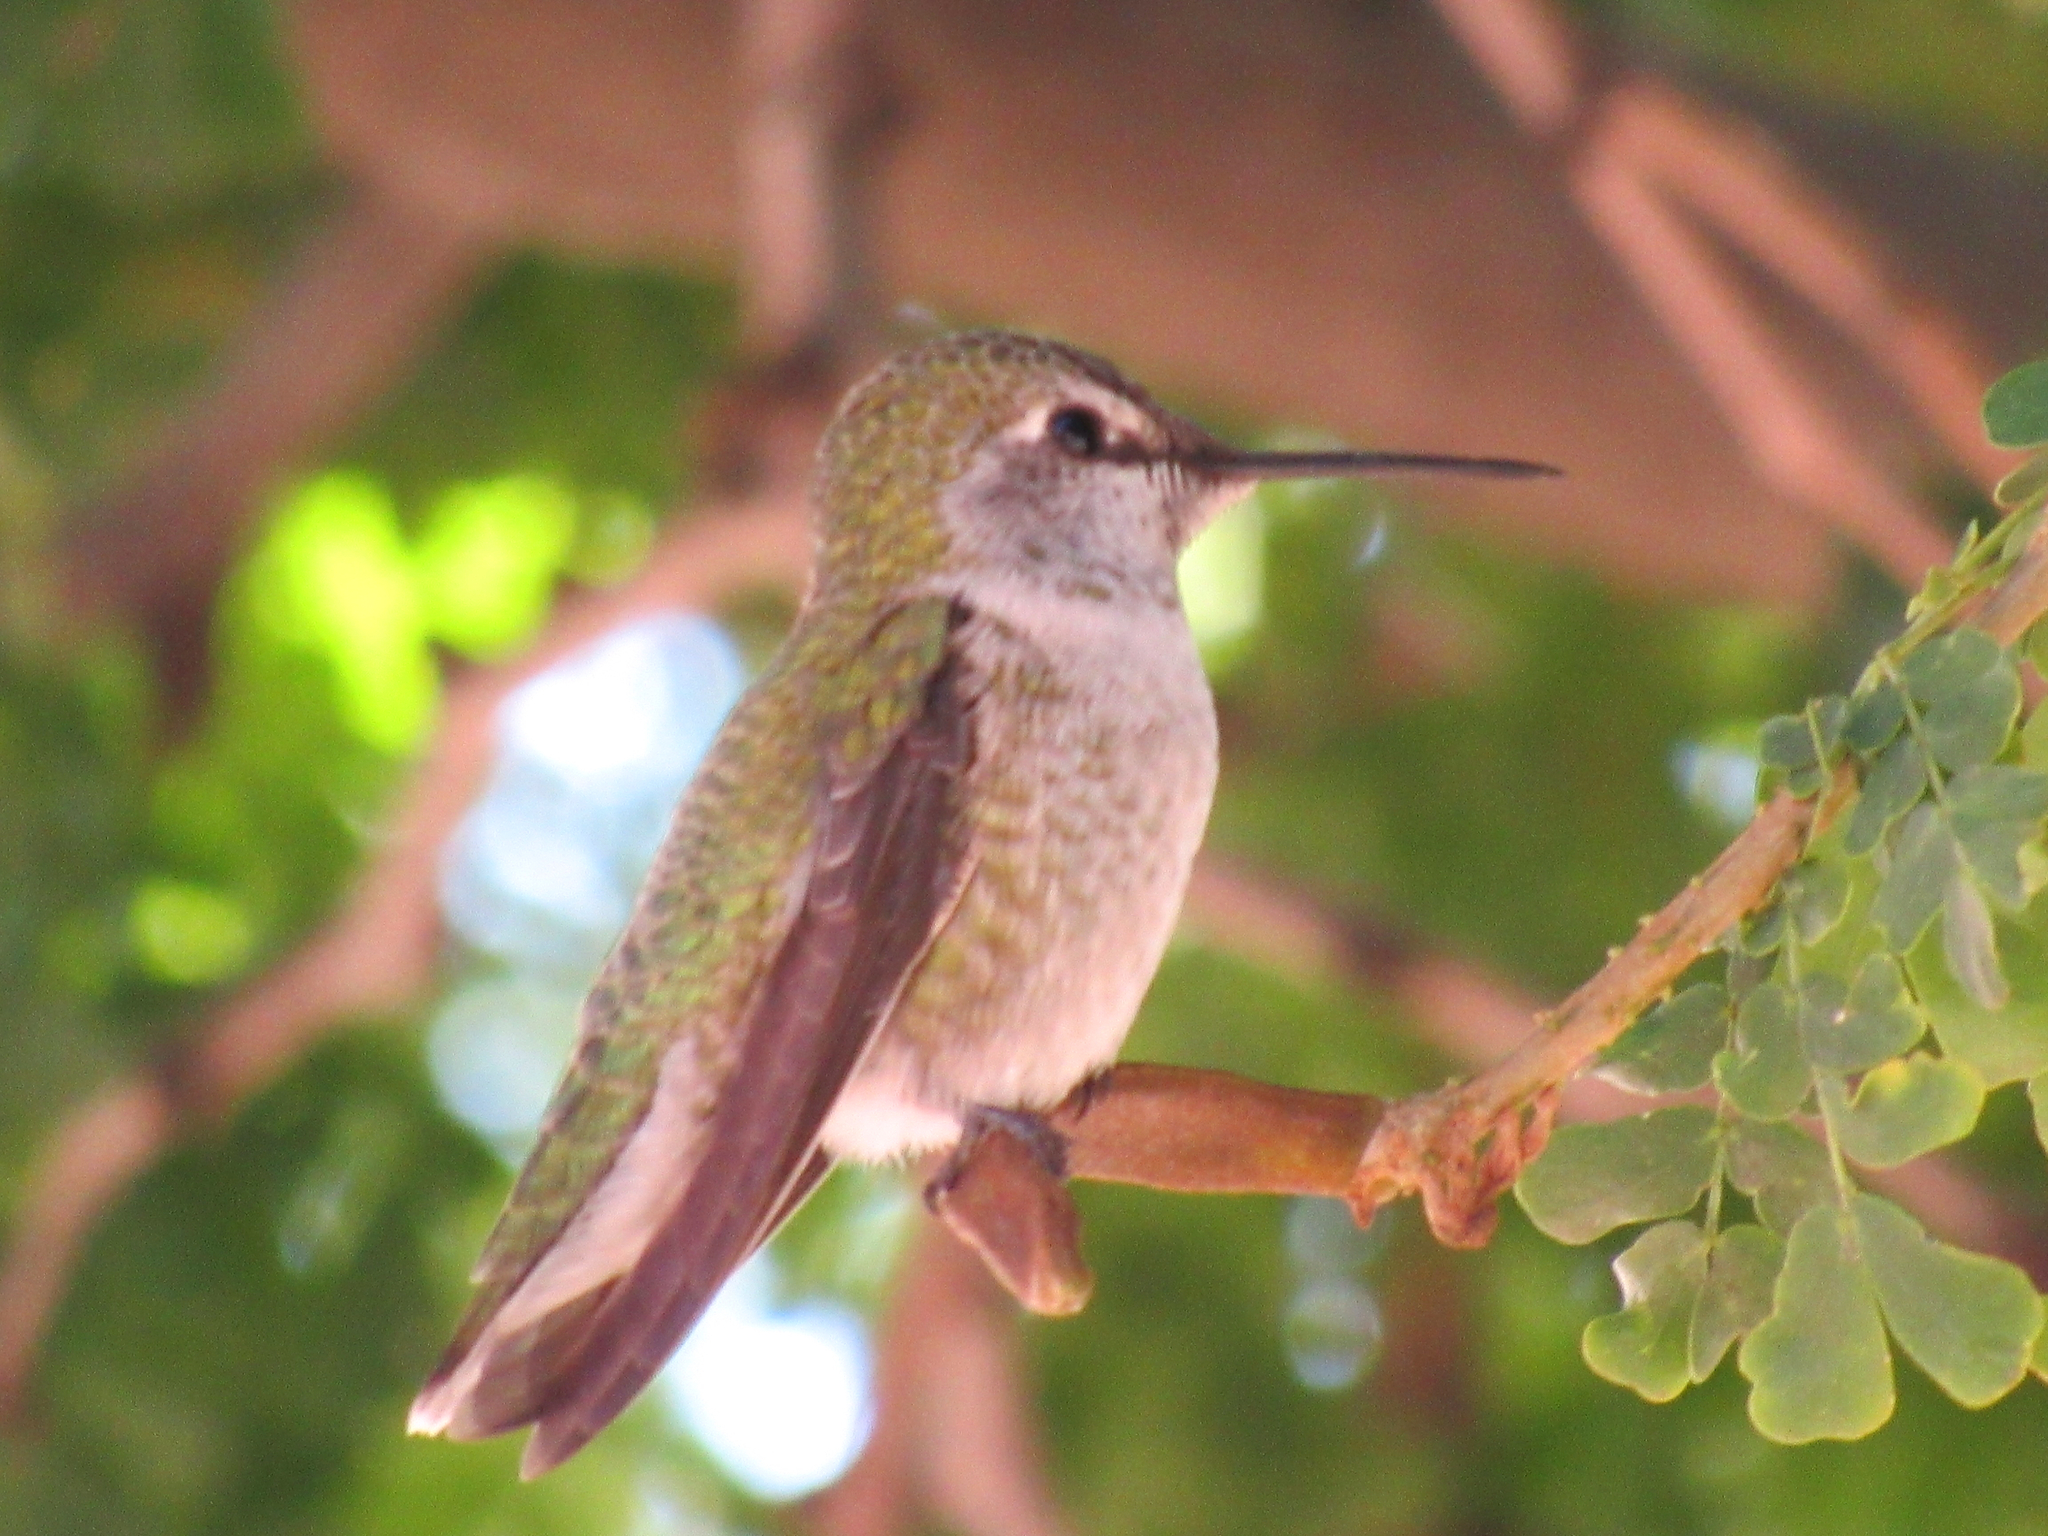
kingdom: Animalia
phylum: Chordata
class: Aves
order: Apodiformes
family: Trochilidae
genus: Calypte
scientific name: Calypte anna
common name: Anna's hummingbird
